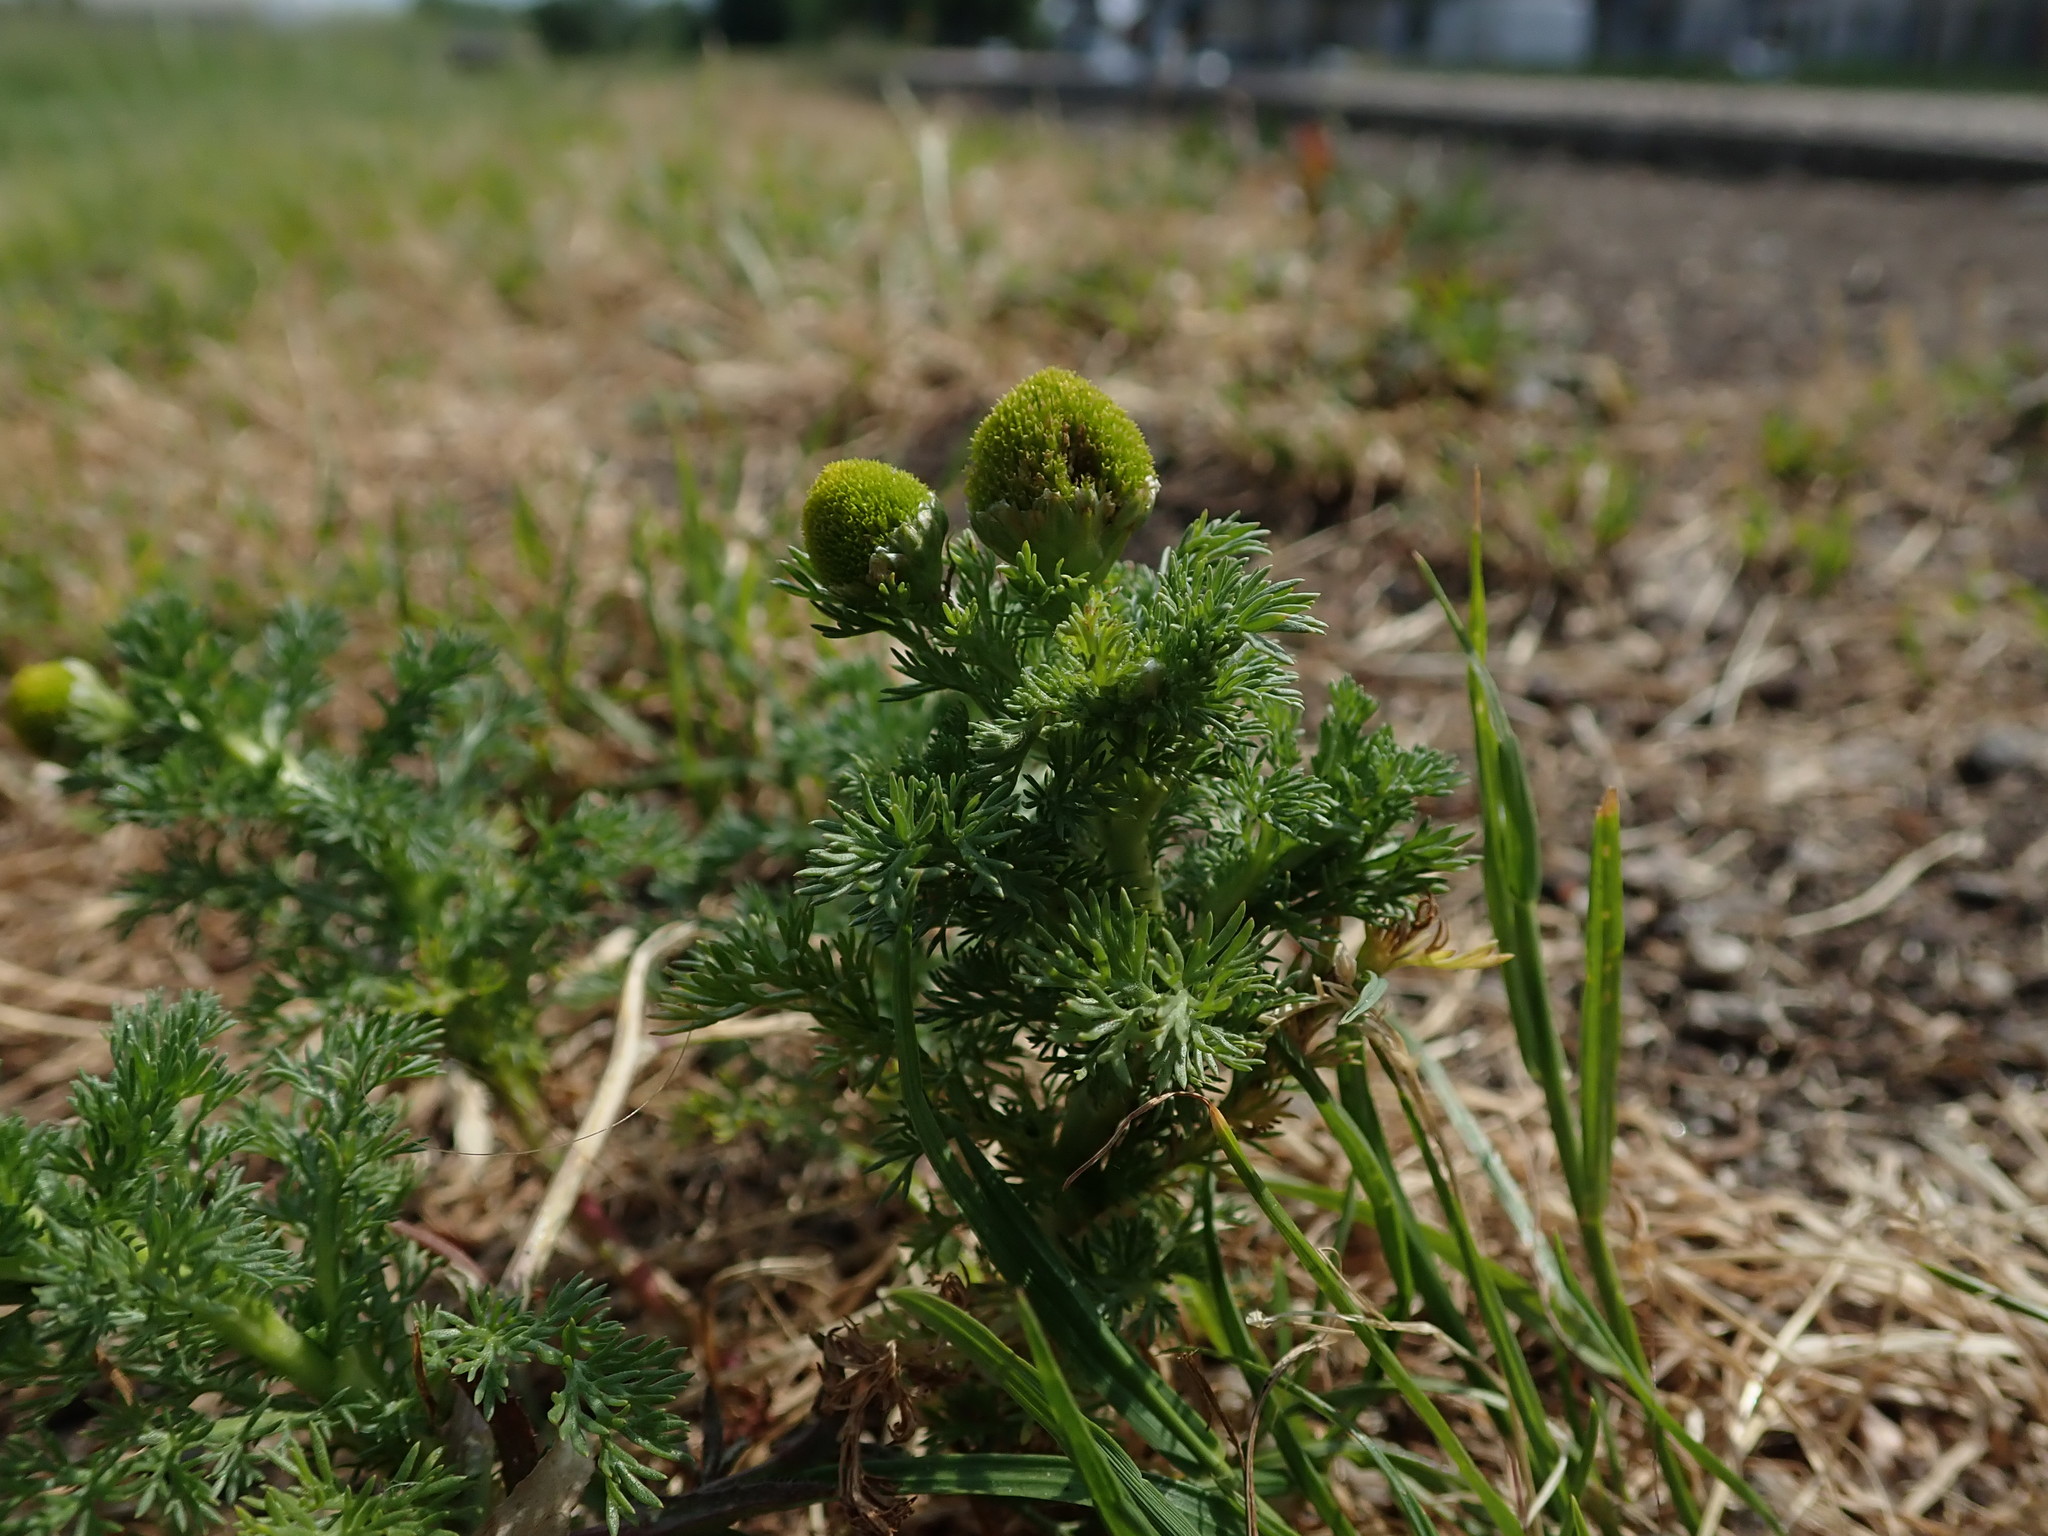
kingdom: Plantae
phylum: Tracheophyta
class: Magnoliopsida
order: Asterales
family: Asteraceae
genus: Matricaria
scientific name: Matricaria discoidea
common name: Disc mayweed
